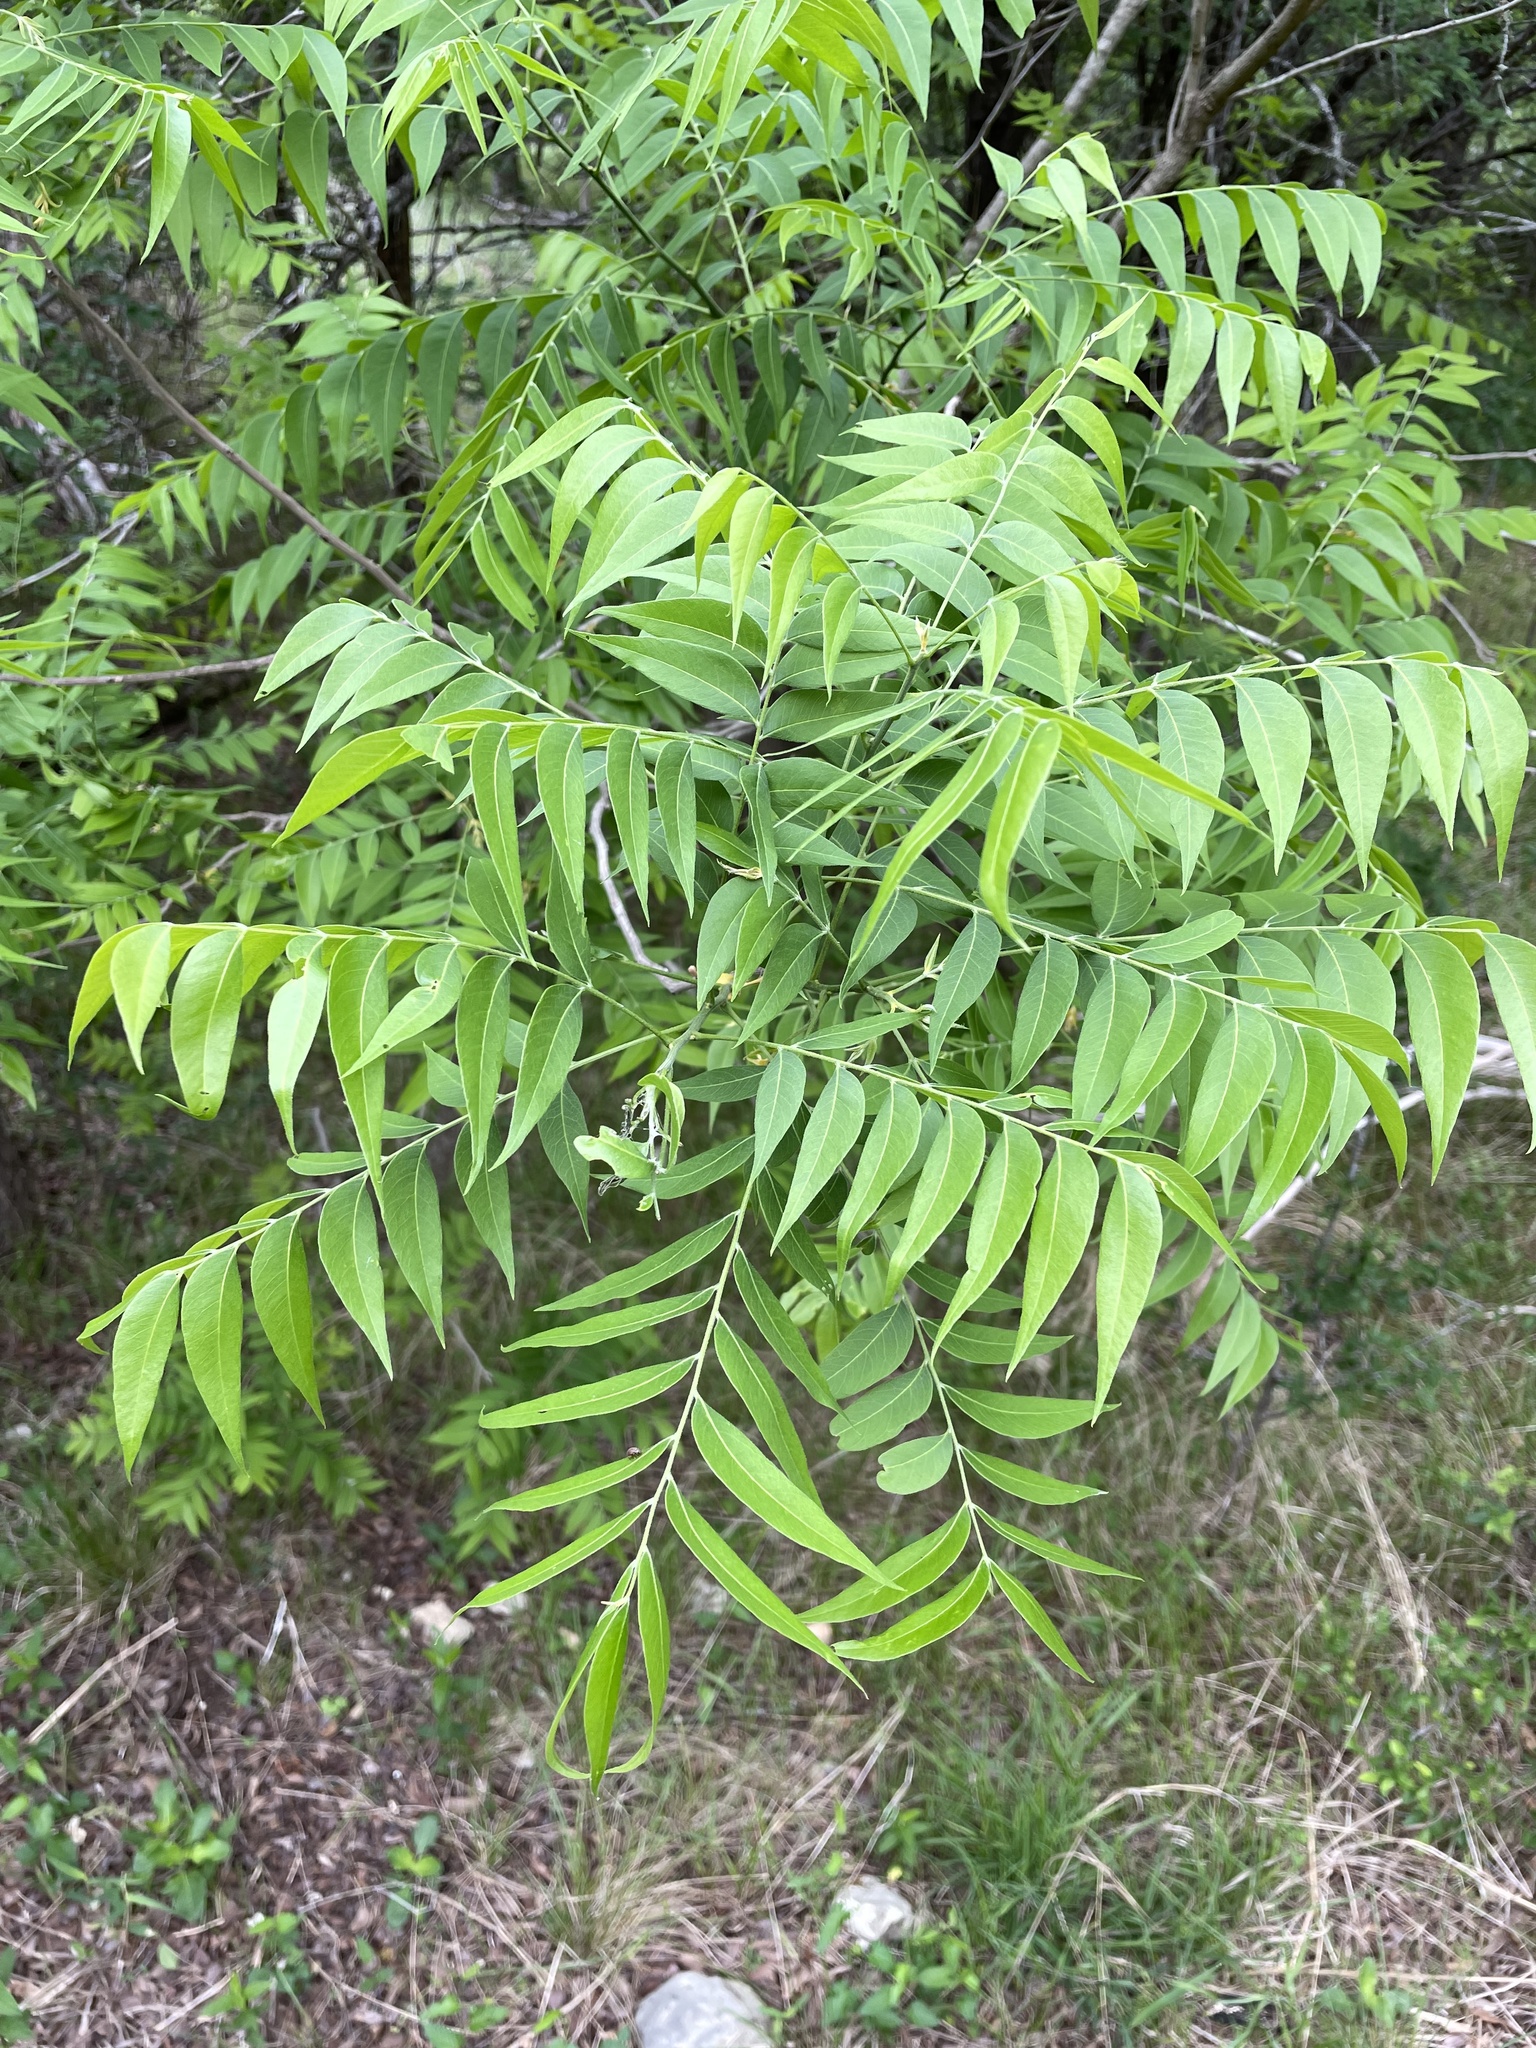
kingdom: Plantae
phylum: Tracheophyta
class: Magnoliopsida
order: Sapindales
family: Sapindaceae
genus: Sapindus
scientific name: Sapindus drummondii
